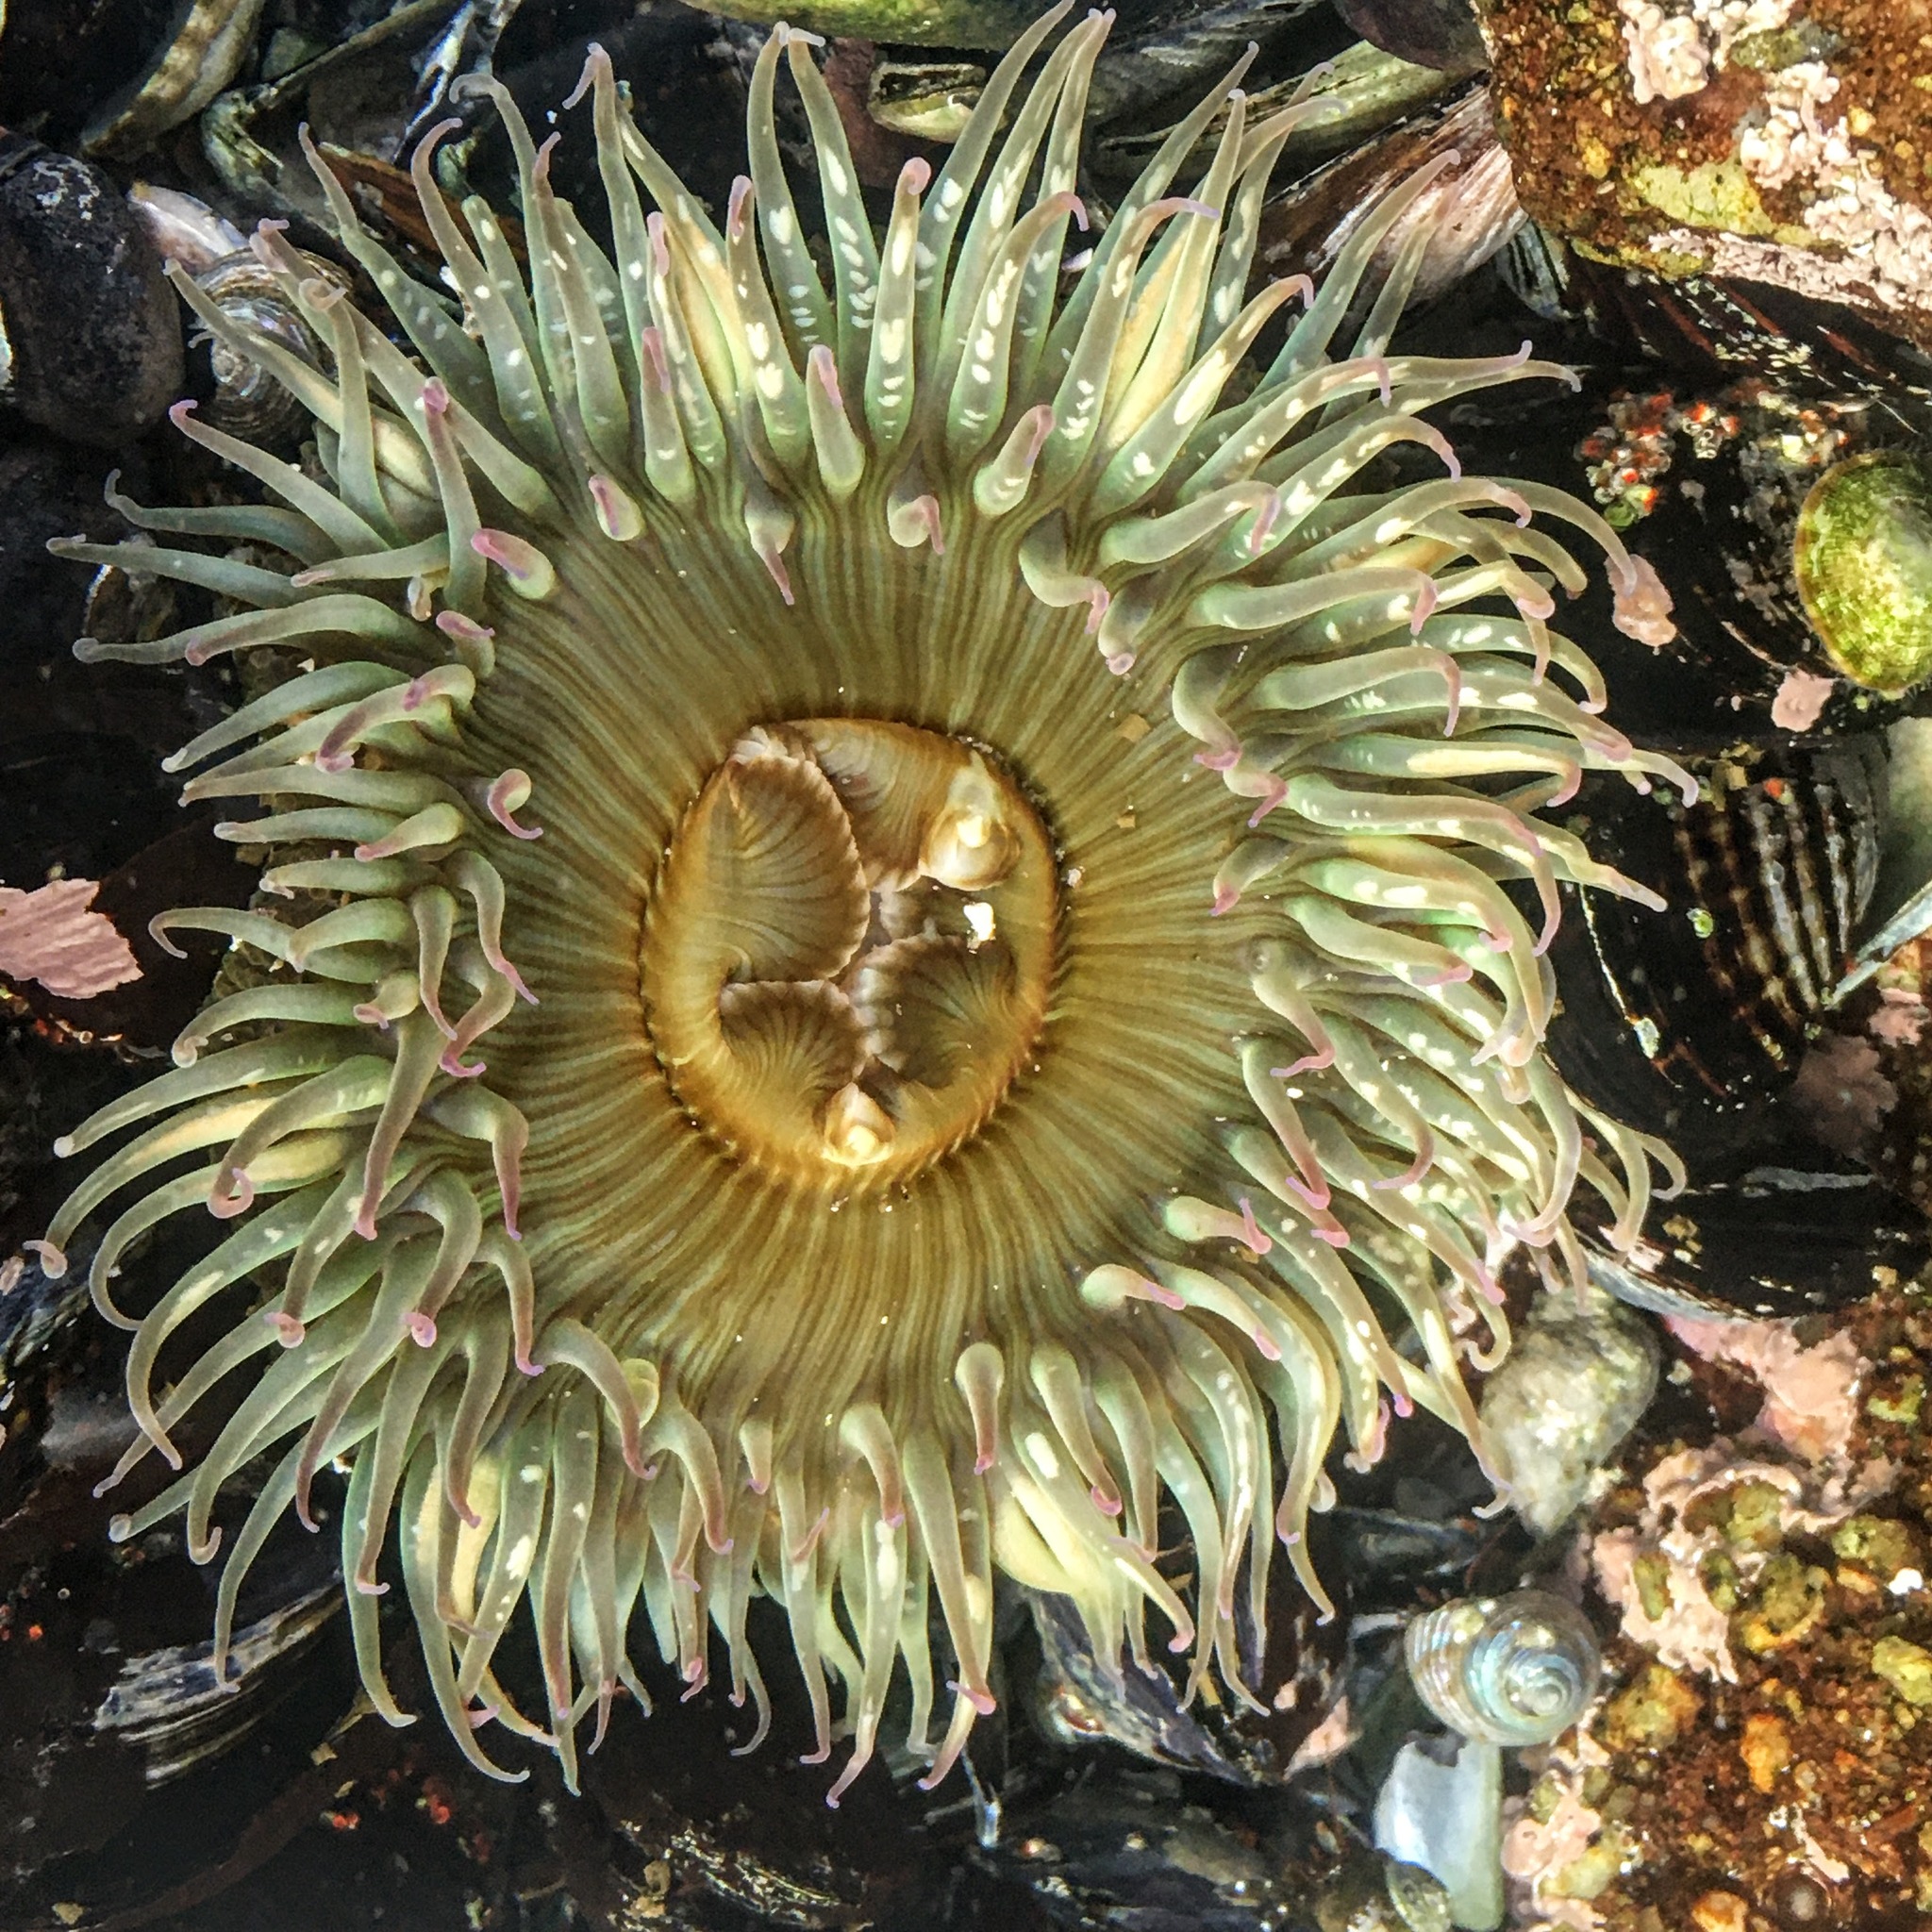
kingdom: Animalia
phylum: Cnidaria
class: Anthozoa
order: Actiniaria
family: Actiniidae
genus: Anthopleura
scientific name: Anthopleura sola
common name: Sun anemone
